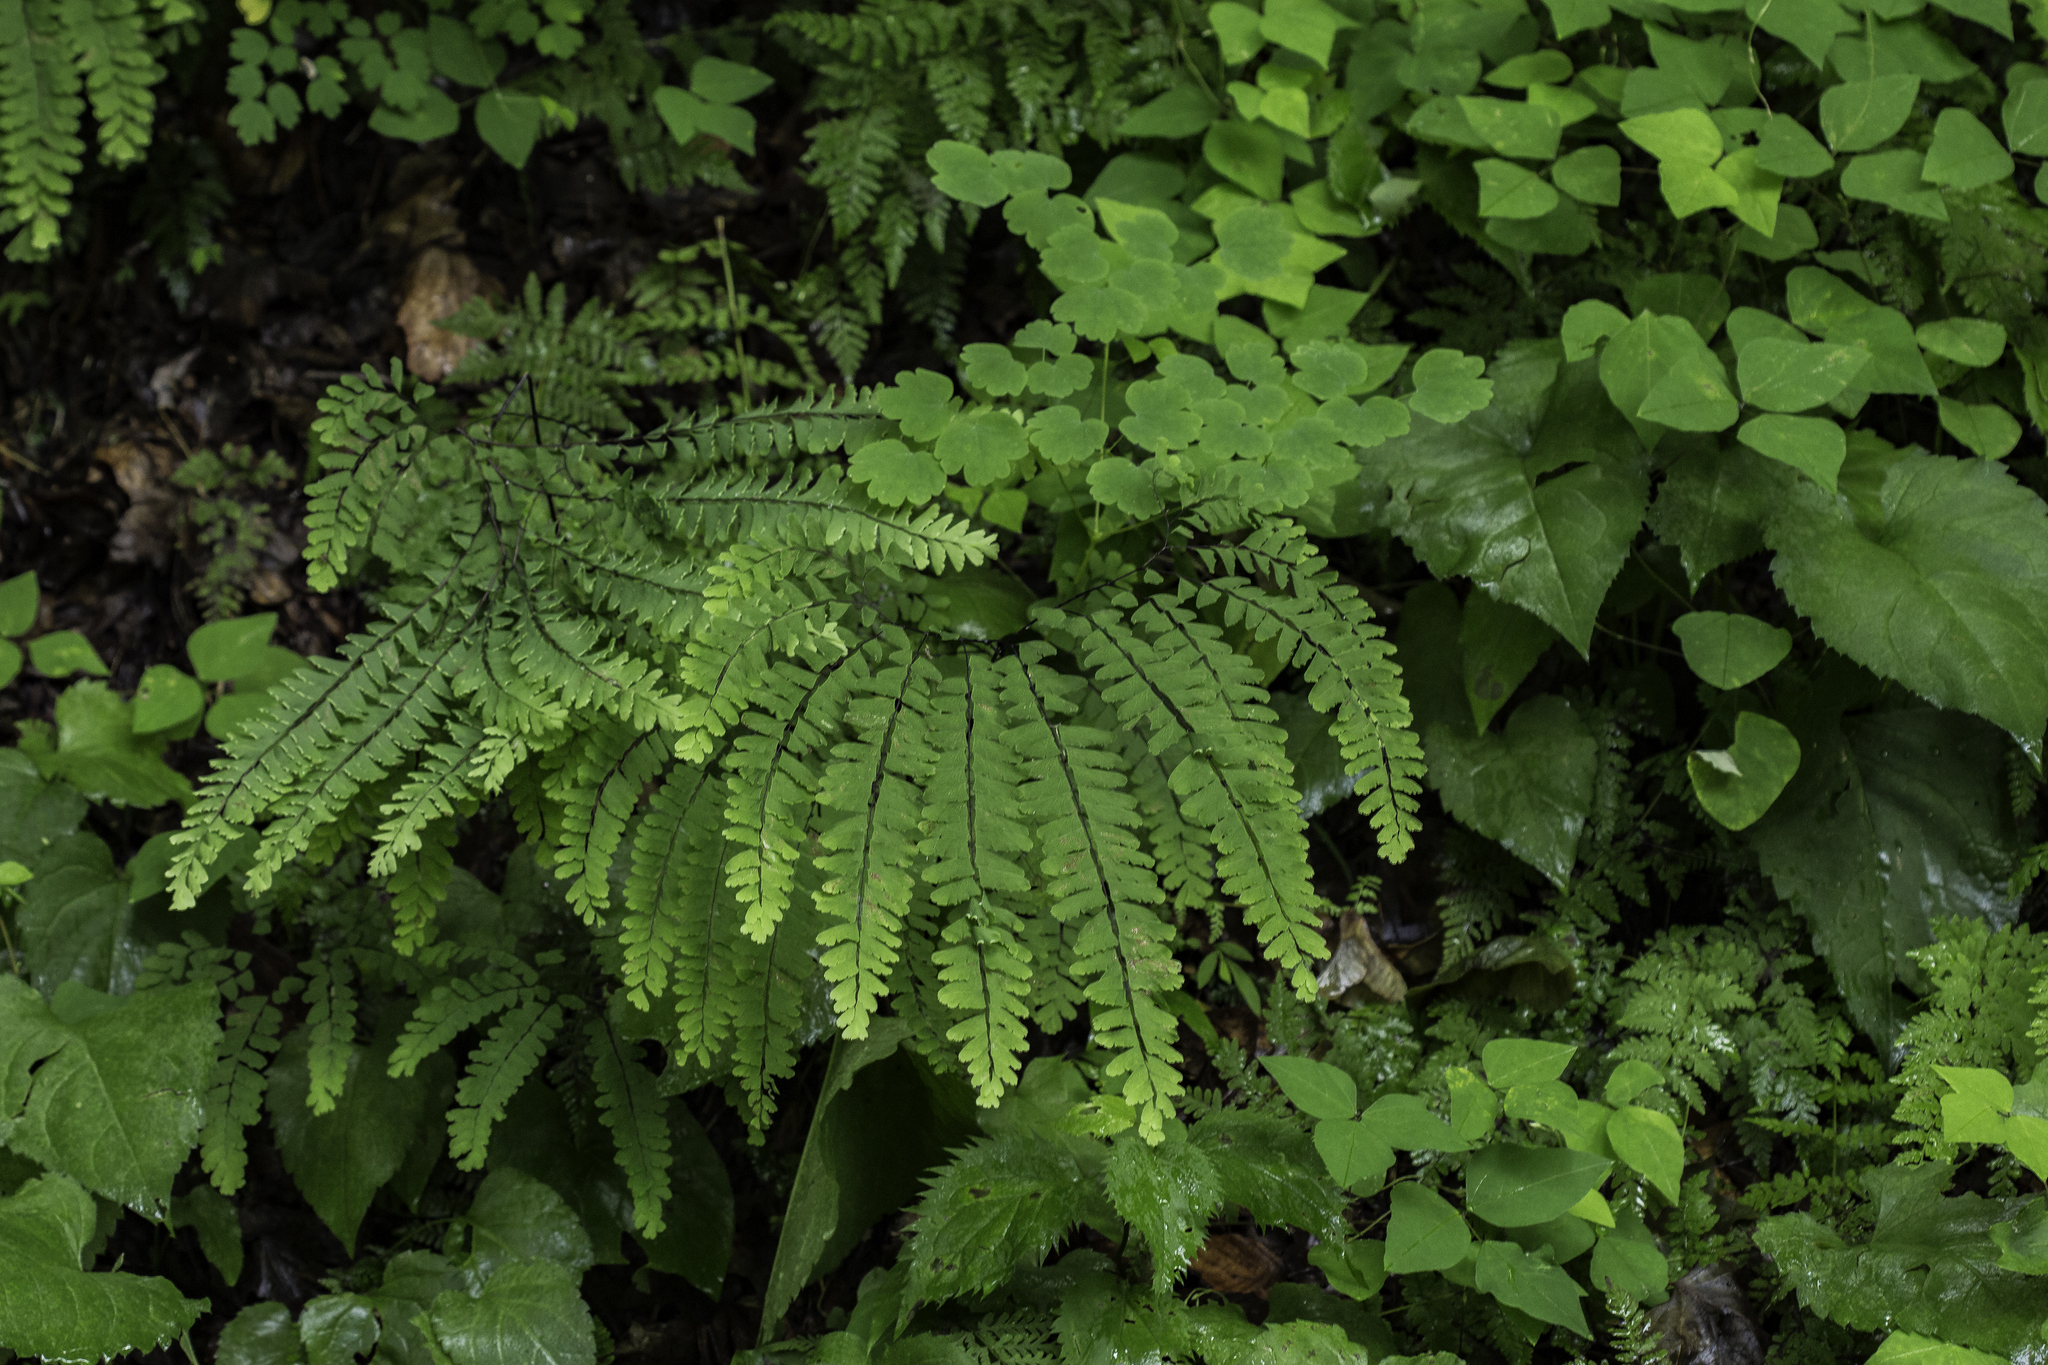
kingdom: Plantae
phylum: Tracheophyta
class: Polypodiopsida
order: Polypodiales
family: Pteridaceae
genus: Adiantum
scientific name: Adiantum pedatum
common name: Five-finger fern
